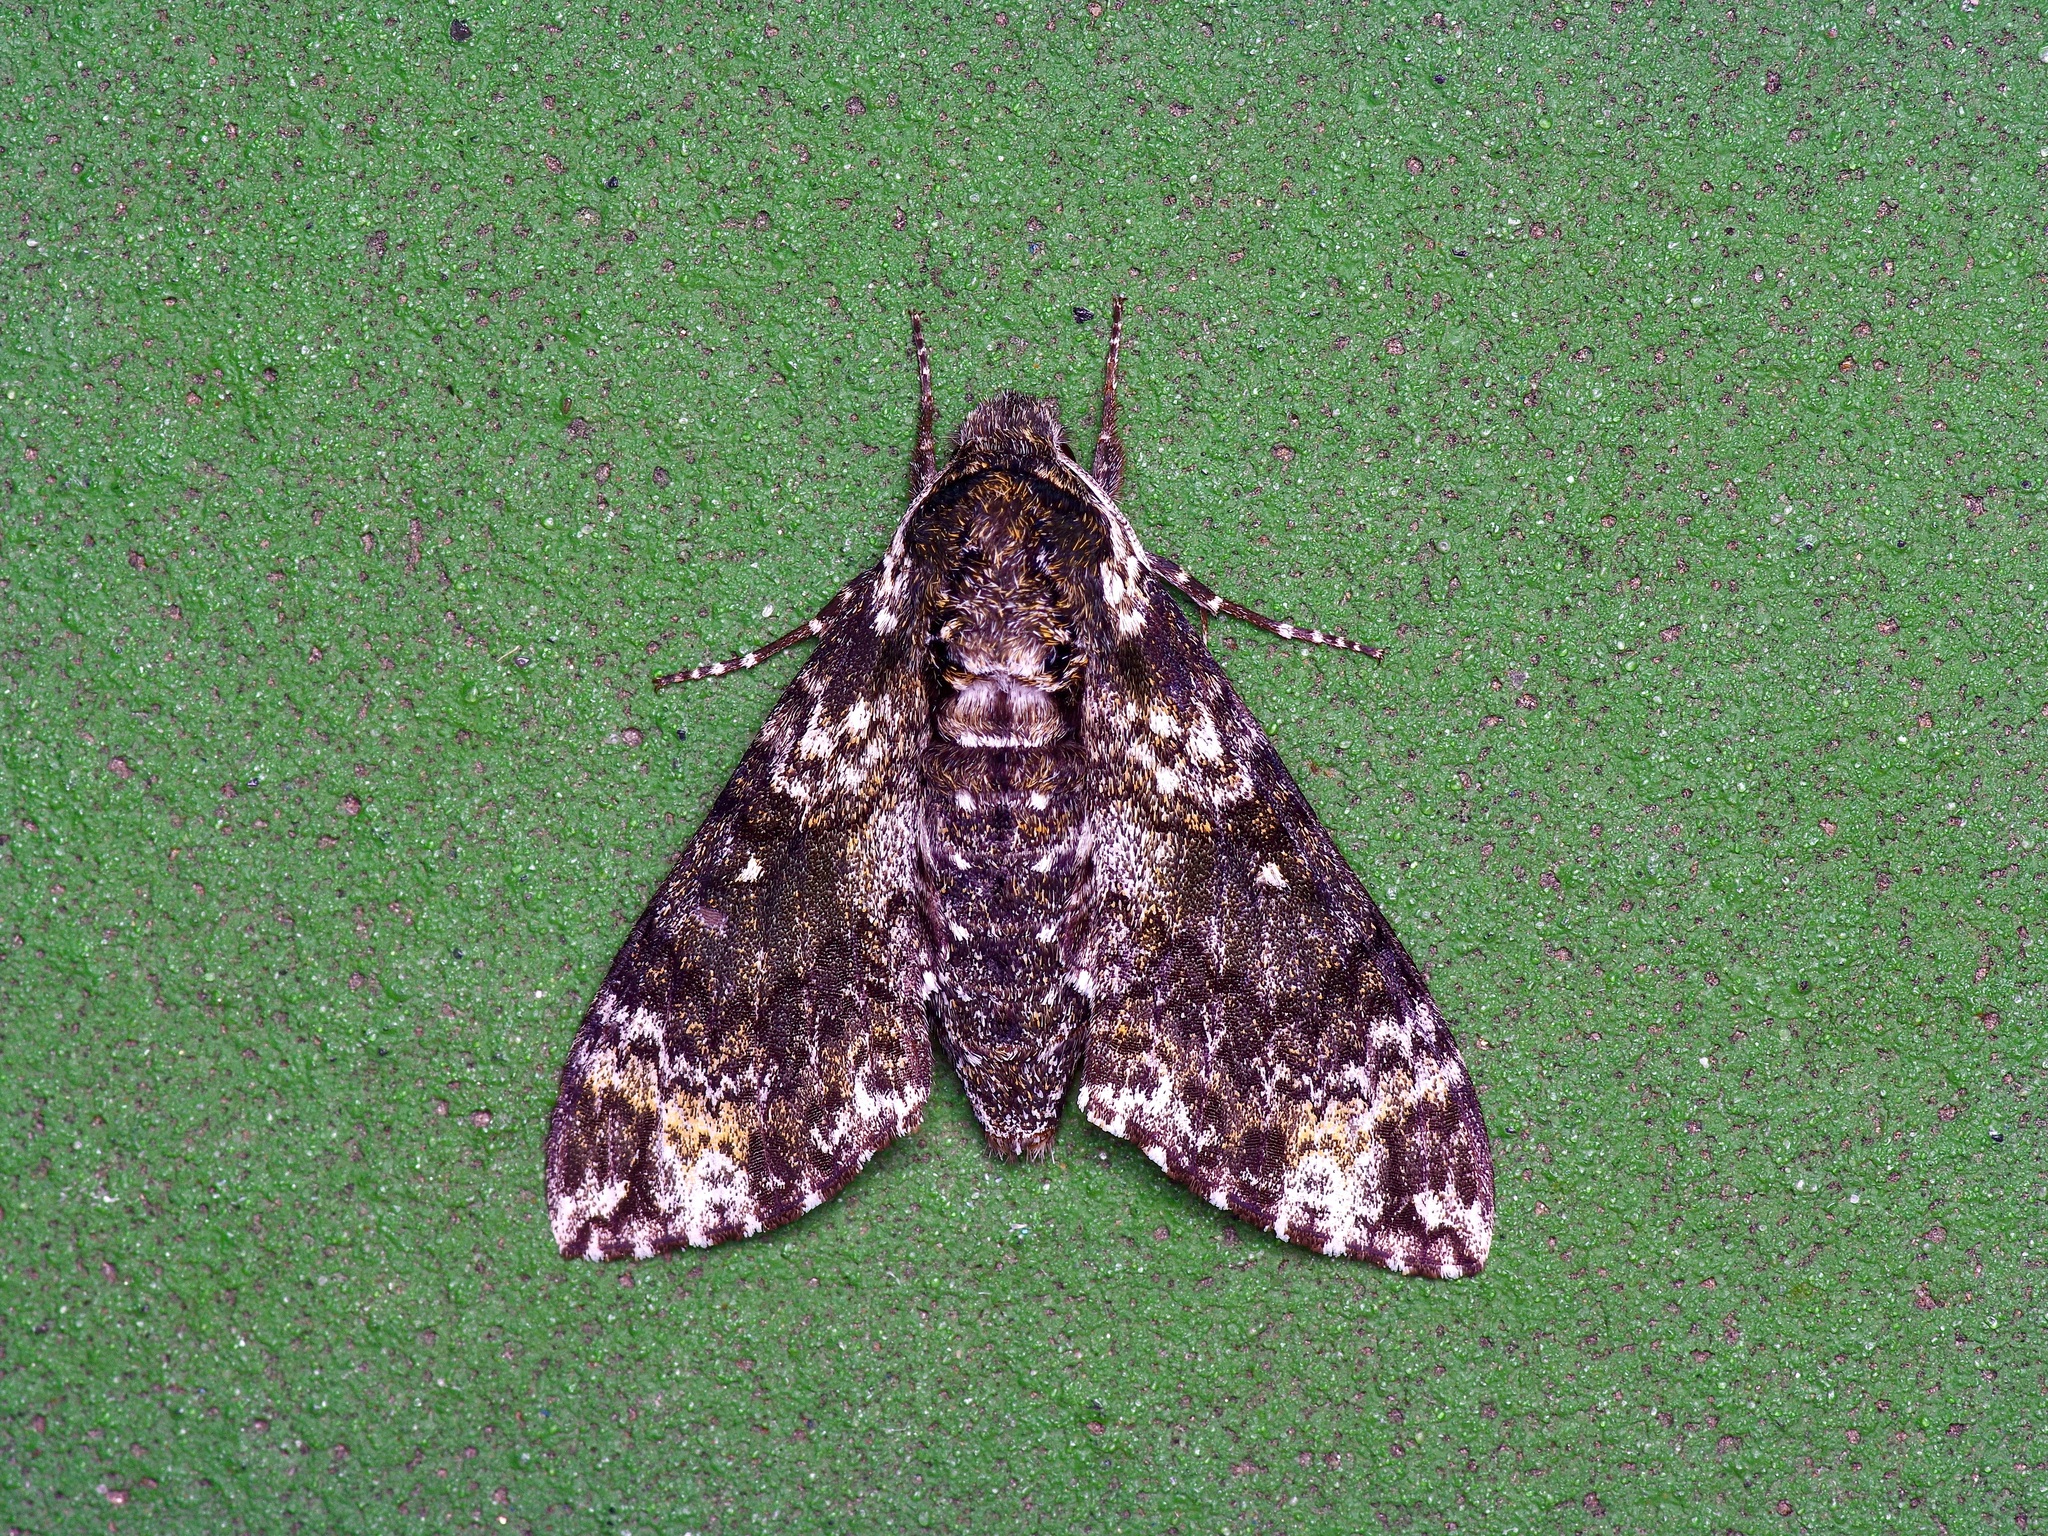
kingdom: Animalia
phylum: Arthropoda
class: Insecta
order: Lepidoptera
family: Sphingidae
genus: Dolba
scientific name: Dolba hyloeus
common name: Pawpaw sphinx
